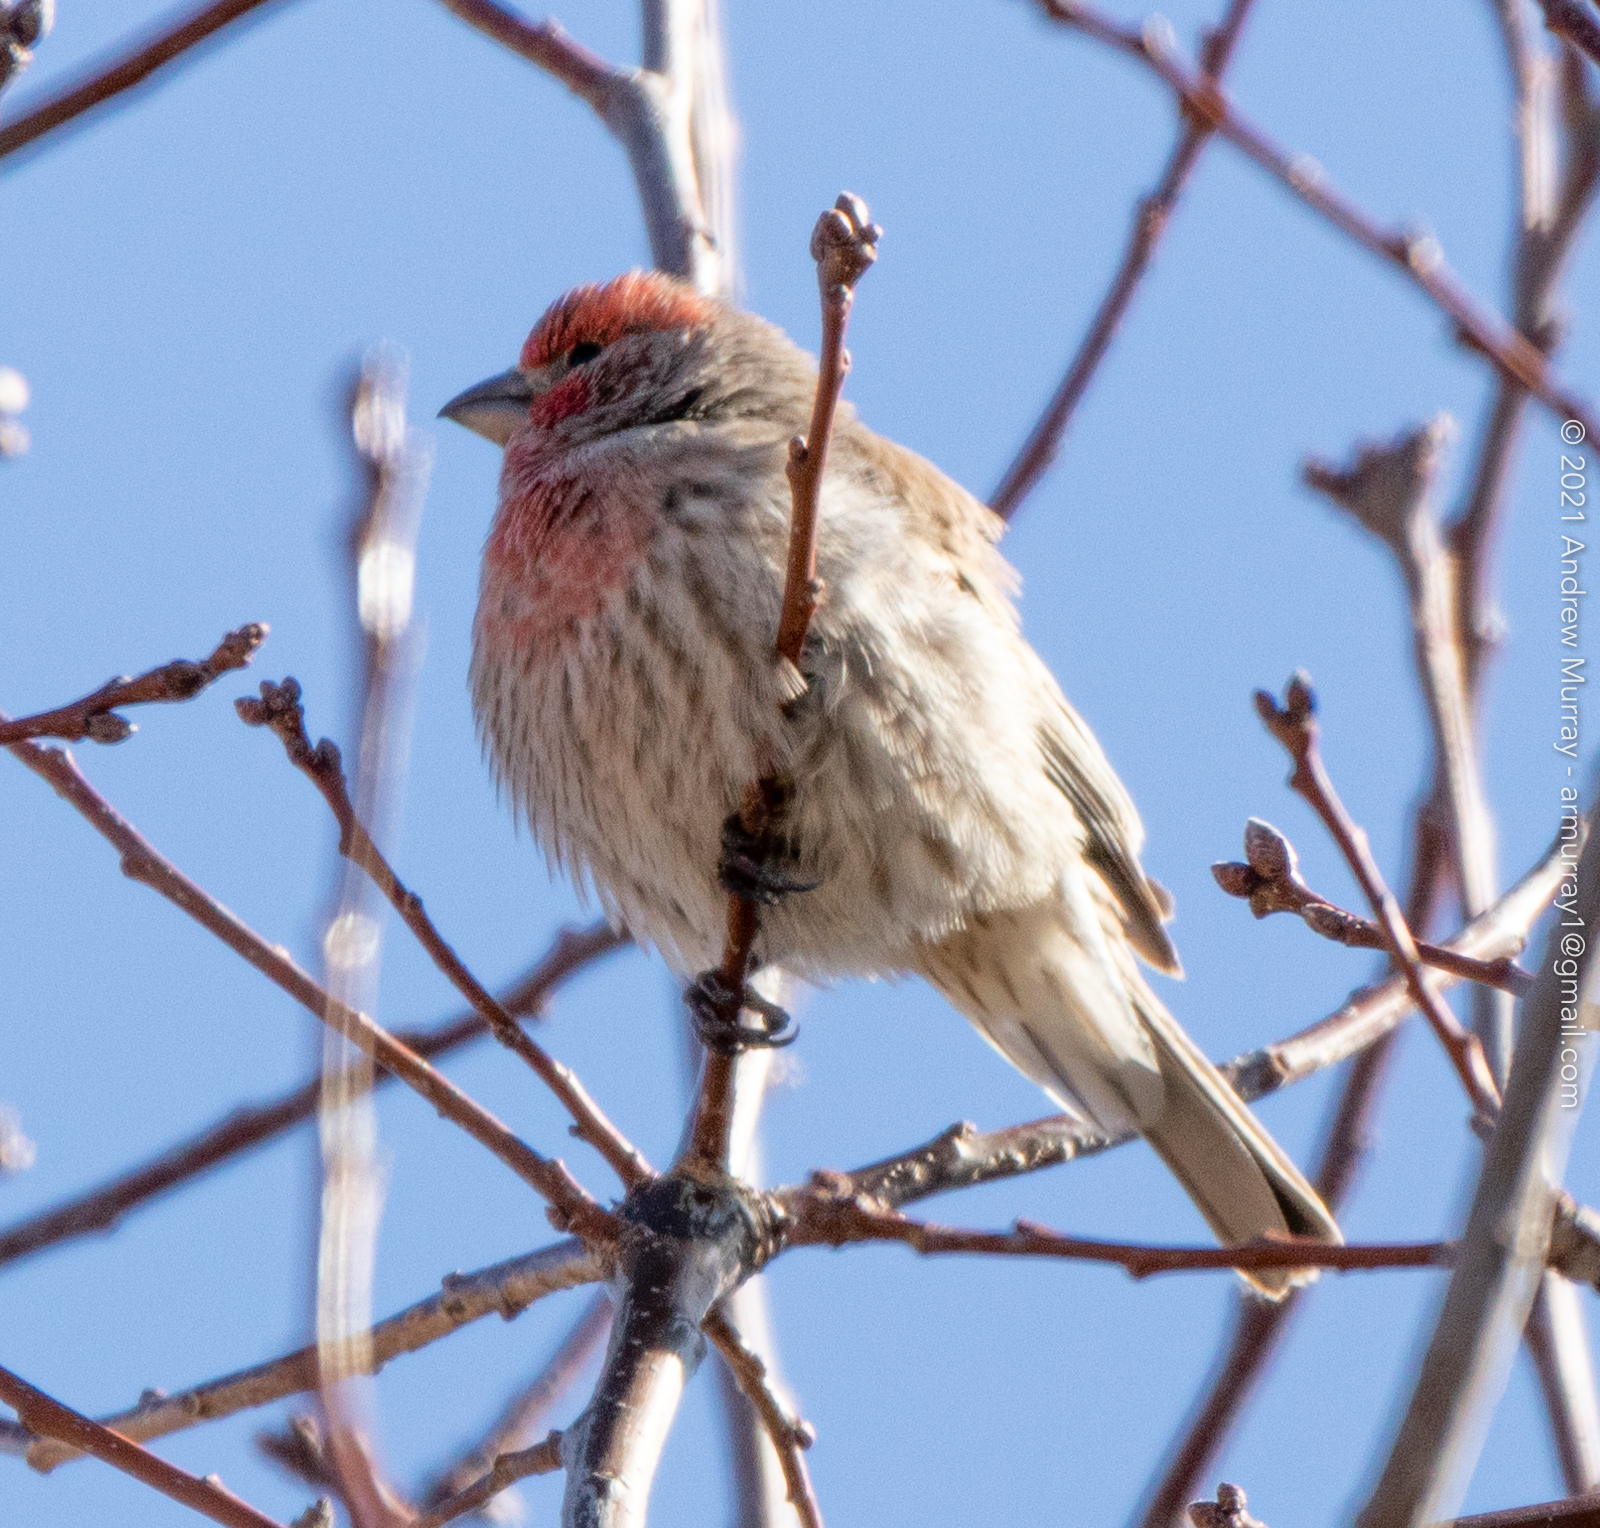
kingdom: Animalia
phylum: Chordata
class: Aves
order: Passeriformes
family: Fringillidae
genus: Haemorhous
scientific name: Haemorhous mexicanus
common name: House finch
